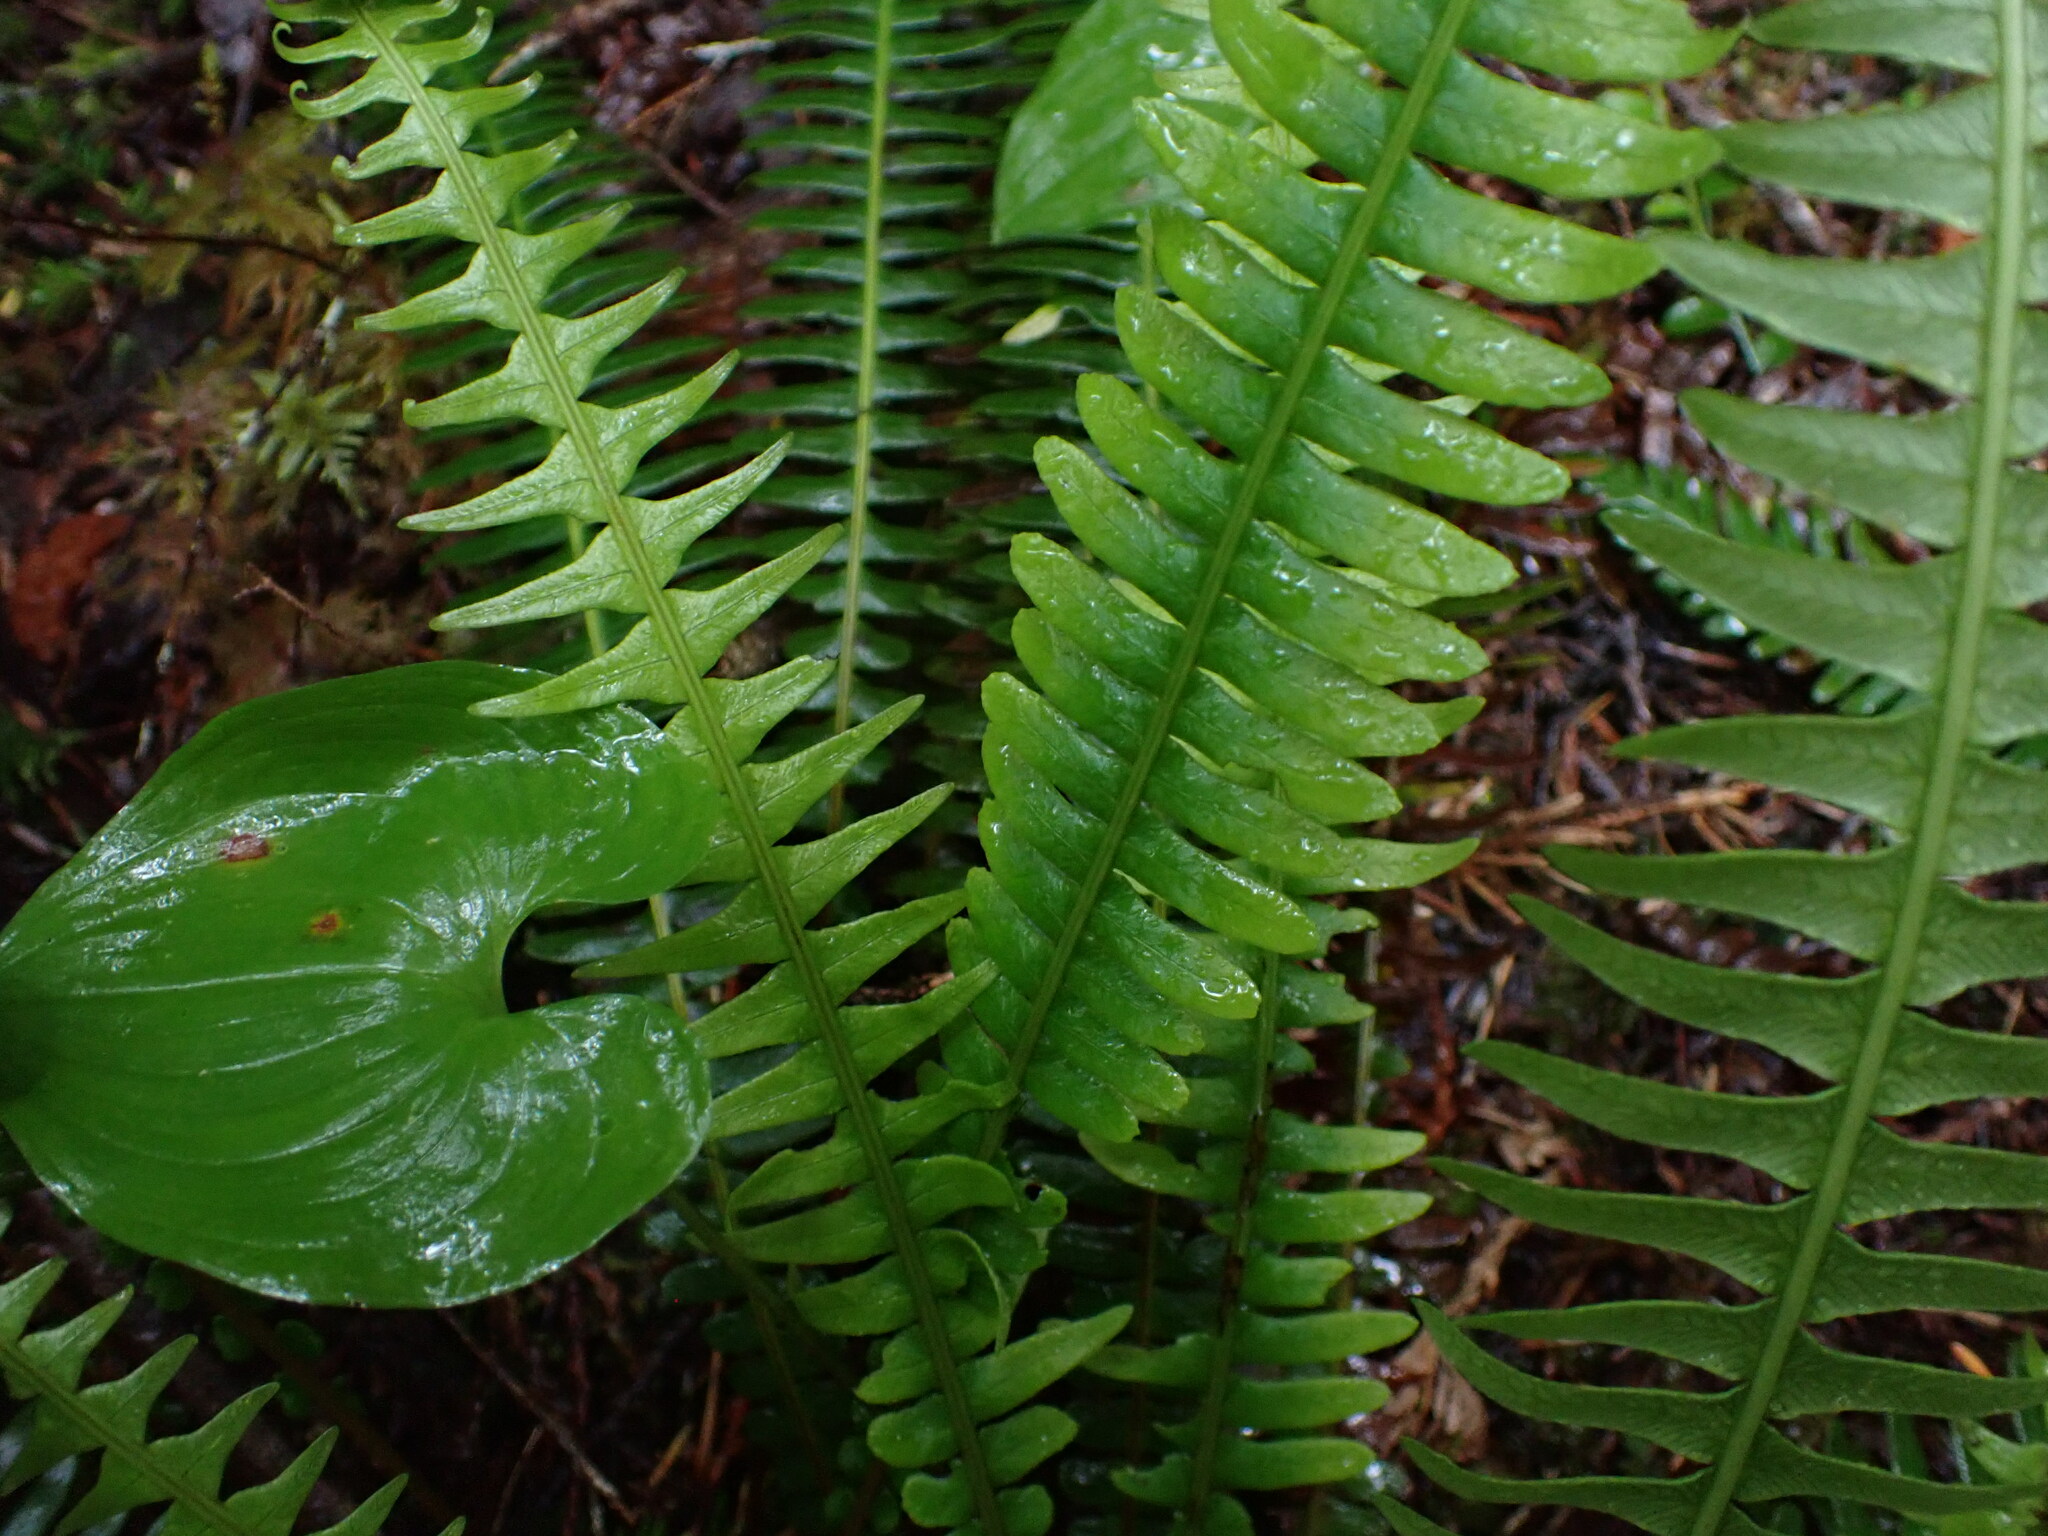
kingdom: Plantae
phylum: Tracheophyta
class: Polypodiopsida
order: Polypodiales
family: Blechnaceae
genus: Struthiopteris
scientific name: Struthiopteris spicant
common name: Deer fern
